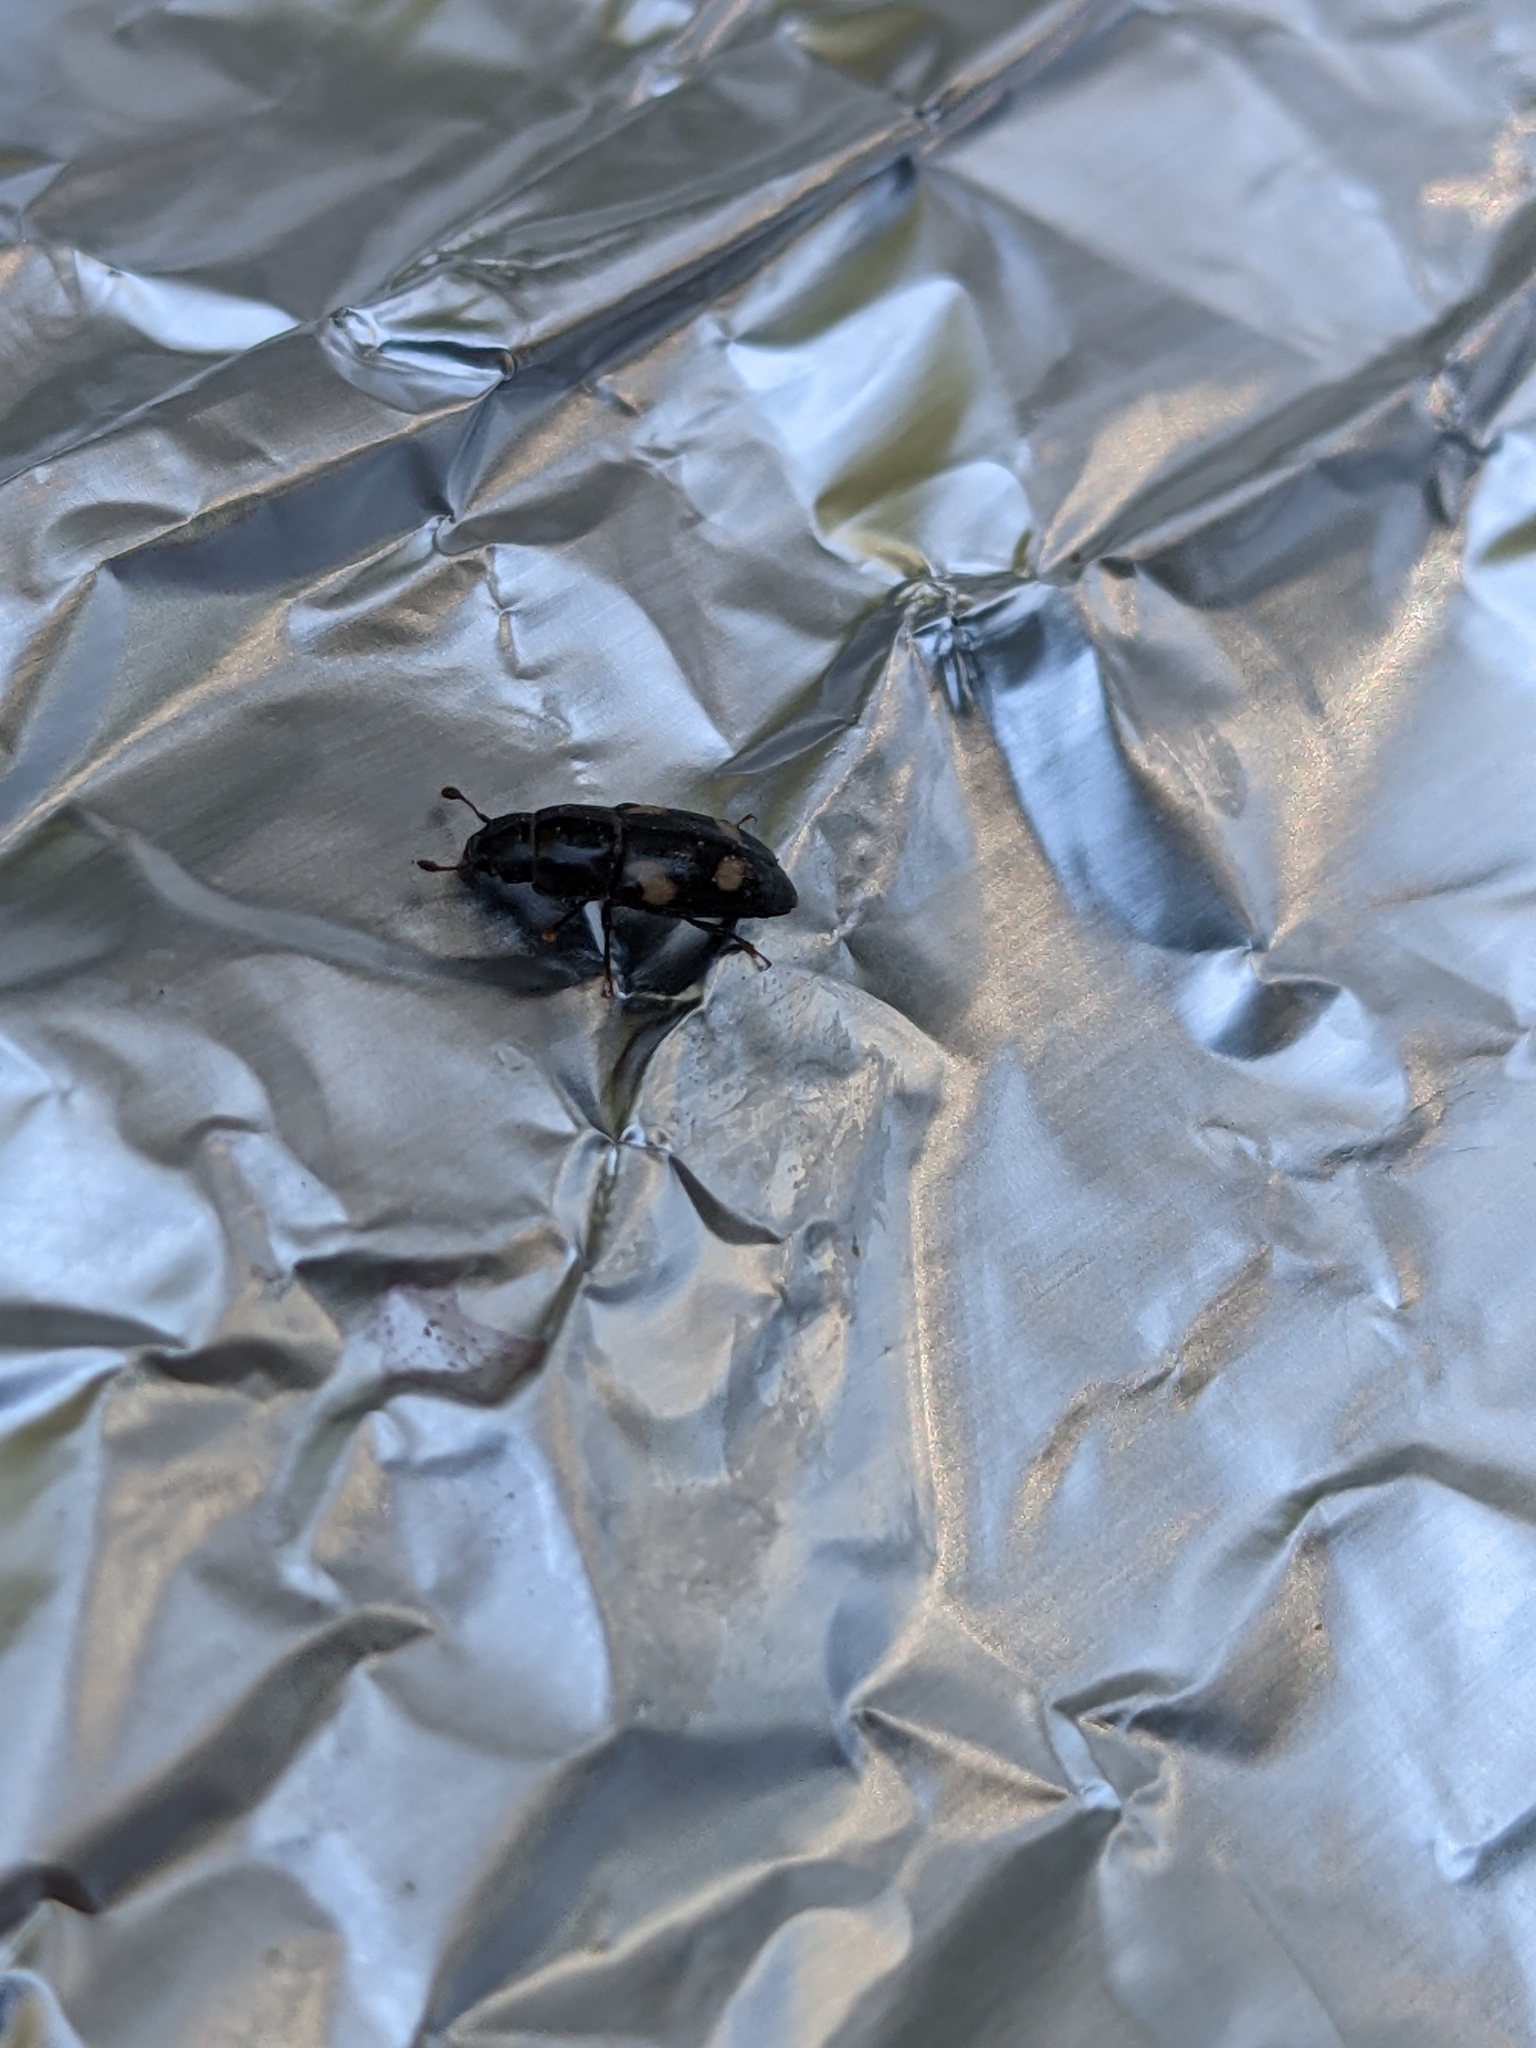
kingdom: Animalia
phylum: Arthropoda
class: Insecta
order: Coleoptera
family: Nitidulidae
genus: Glischrochilus
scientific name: Glischrochilus quadrisignatus
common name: Picnic beetle
